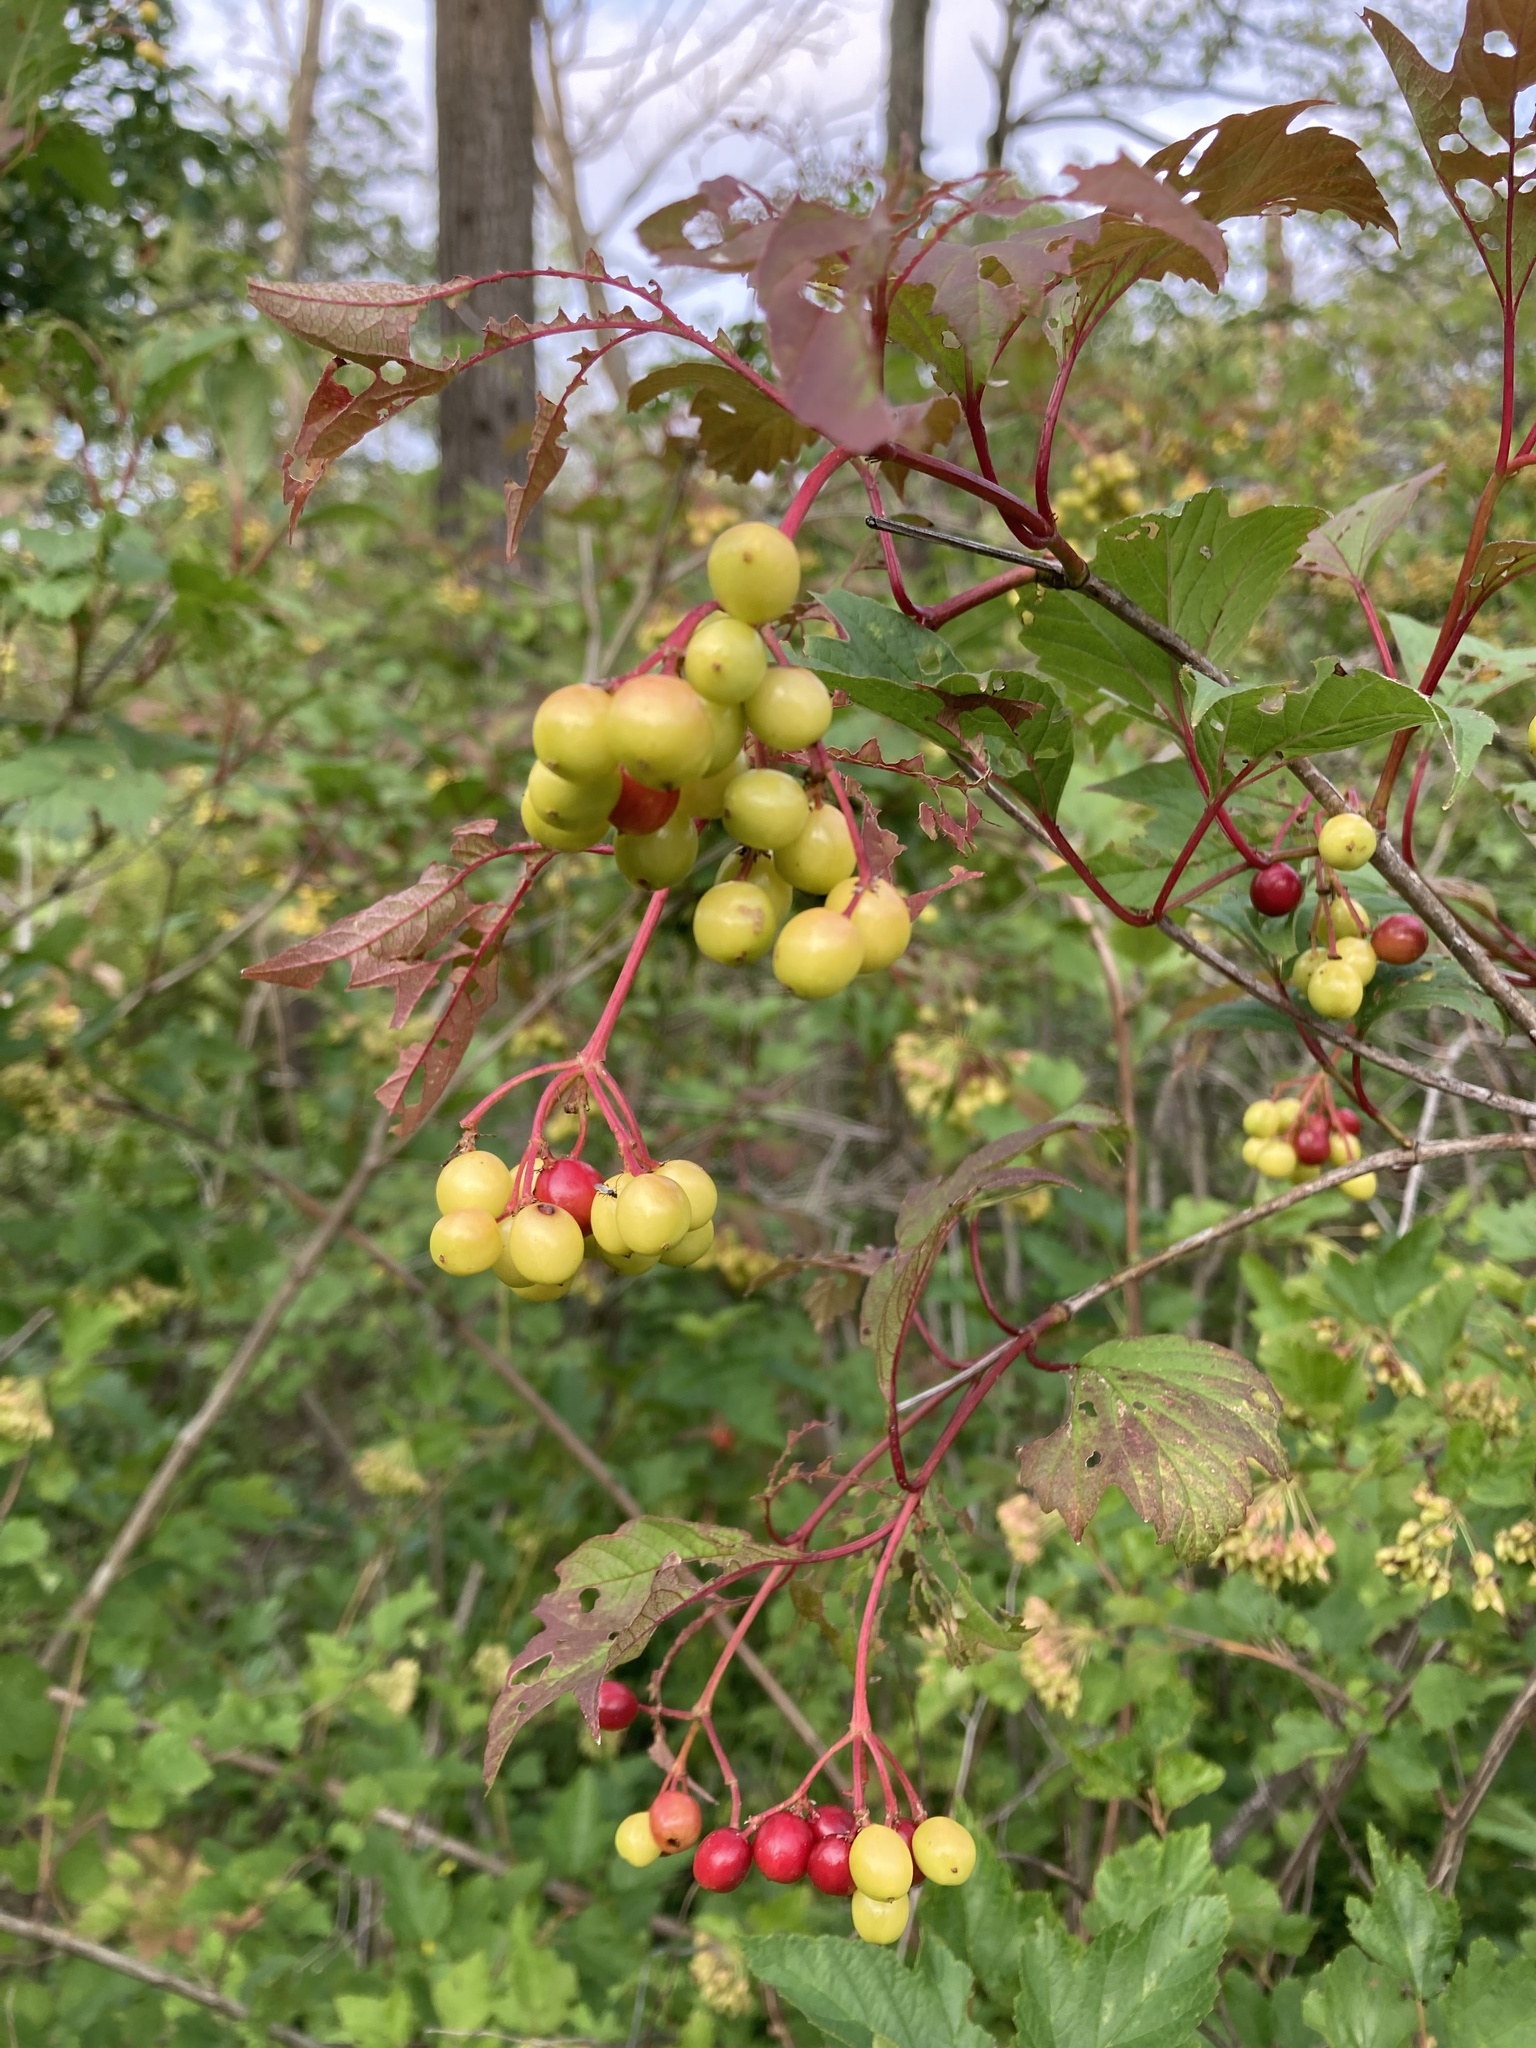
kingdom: Plantae
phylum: Tracheophyta
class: Magnoliopsida
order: Dipsacales
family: Viburnaceae
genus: Viburnum
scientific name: Viburnum opulus
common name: Guelder-rose
